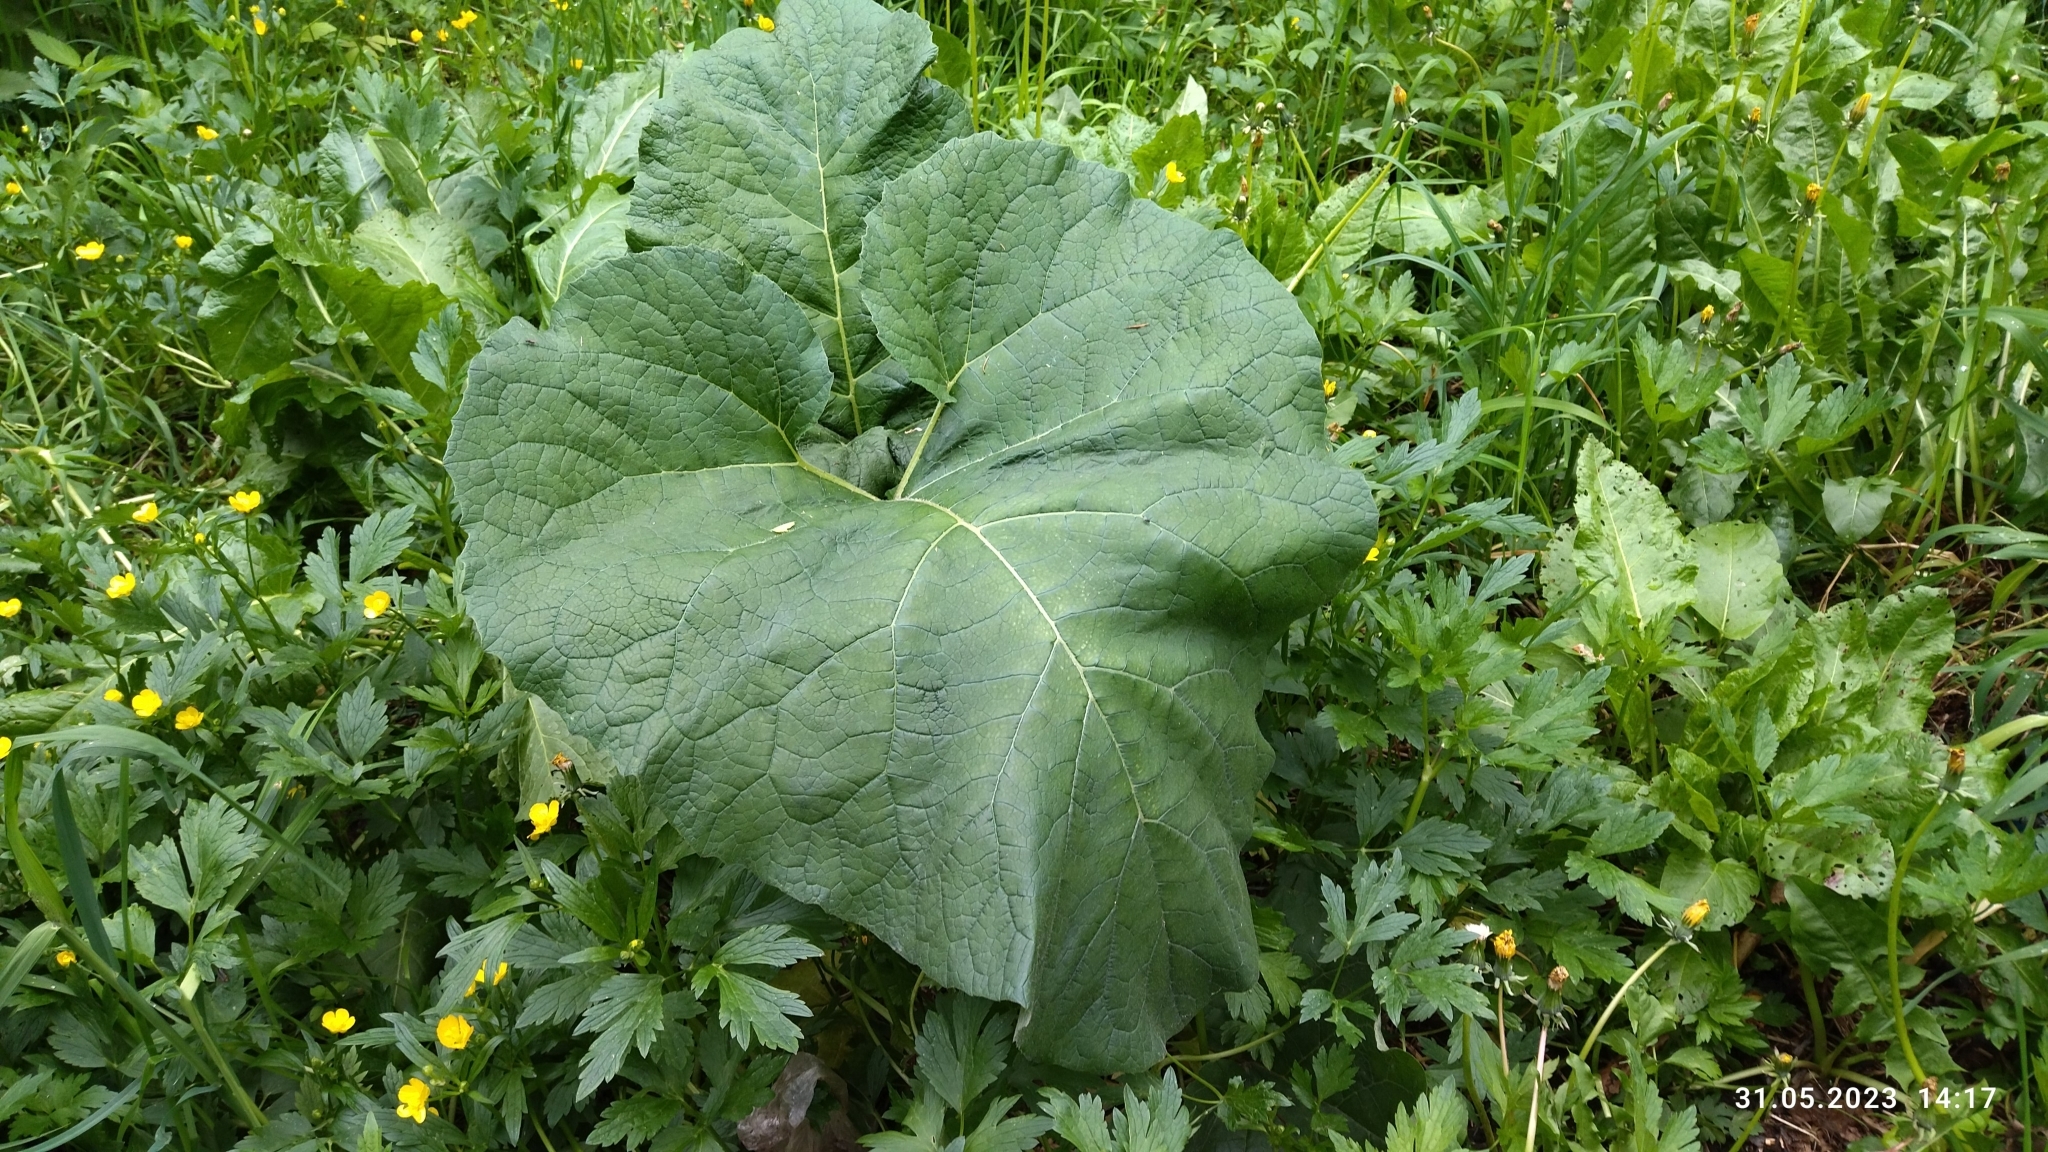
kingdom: Plantae
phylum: Tracheophyta
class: Magnoliopsida
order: Asterales
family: Asteraceae
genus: Arctium
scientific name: Arctium
